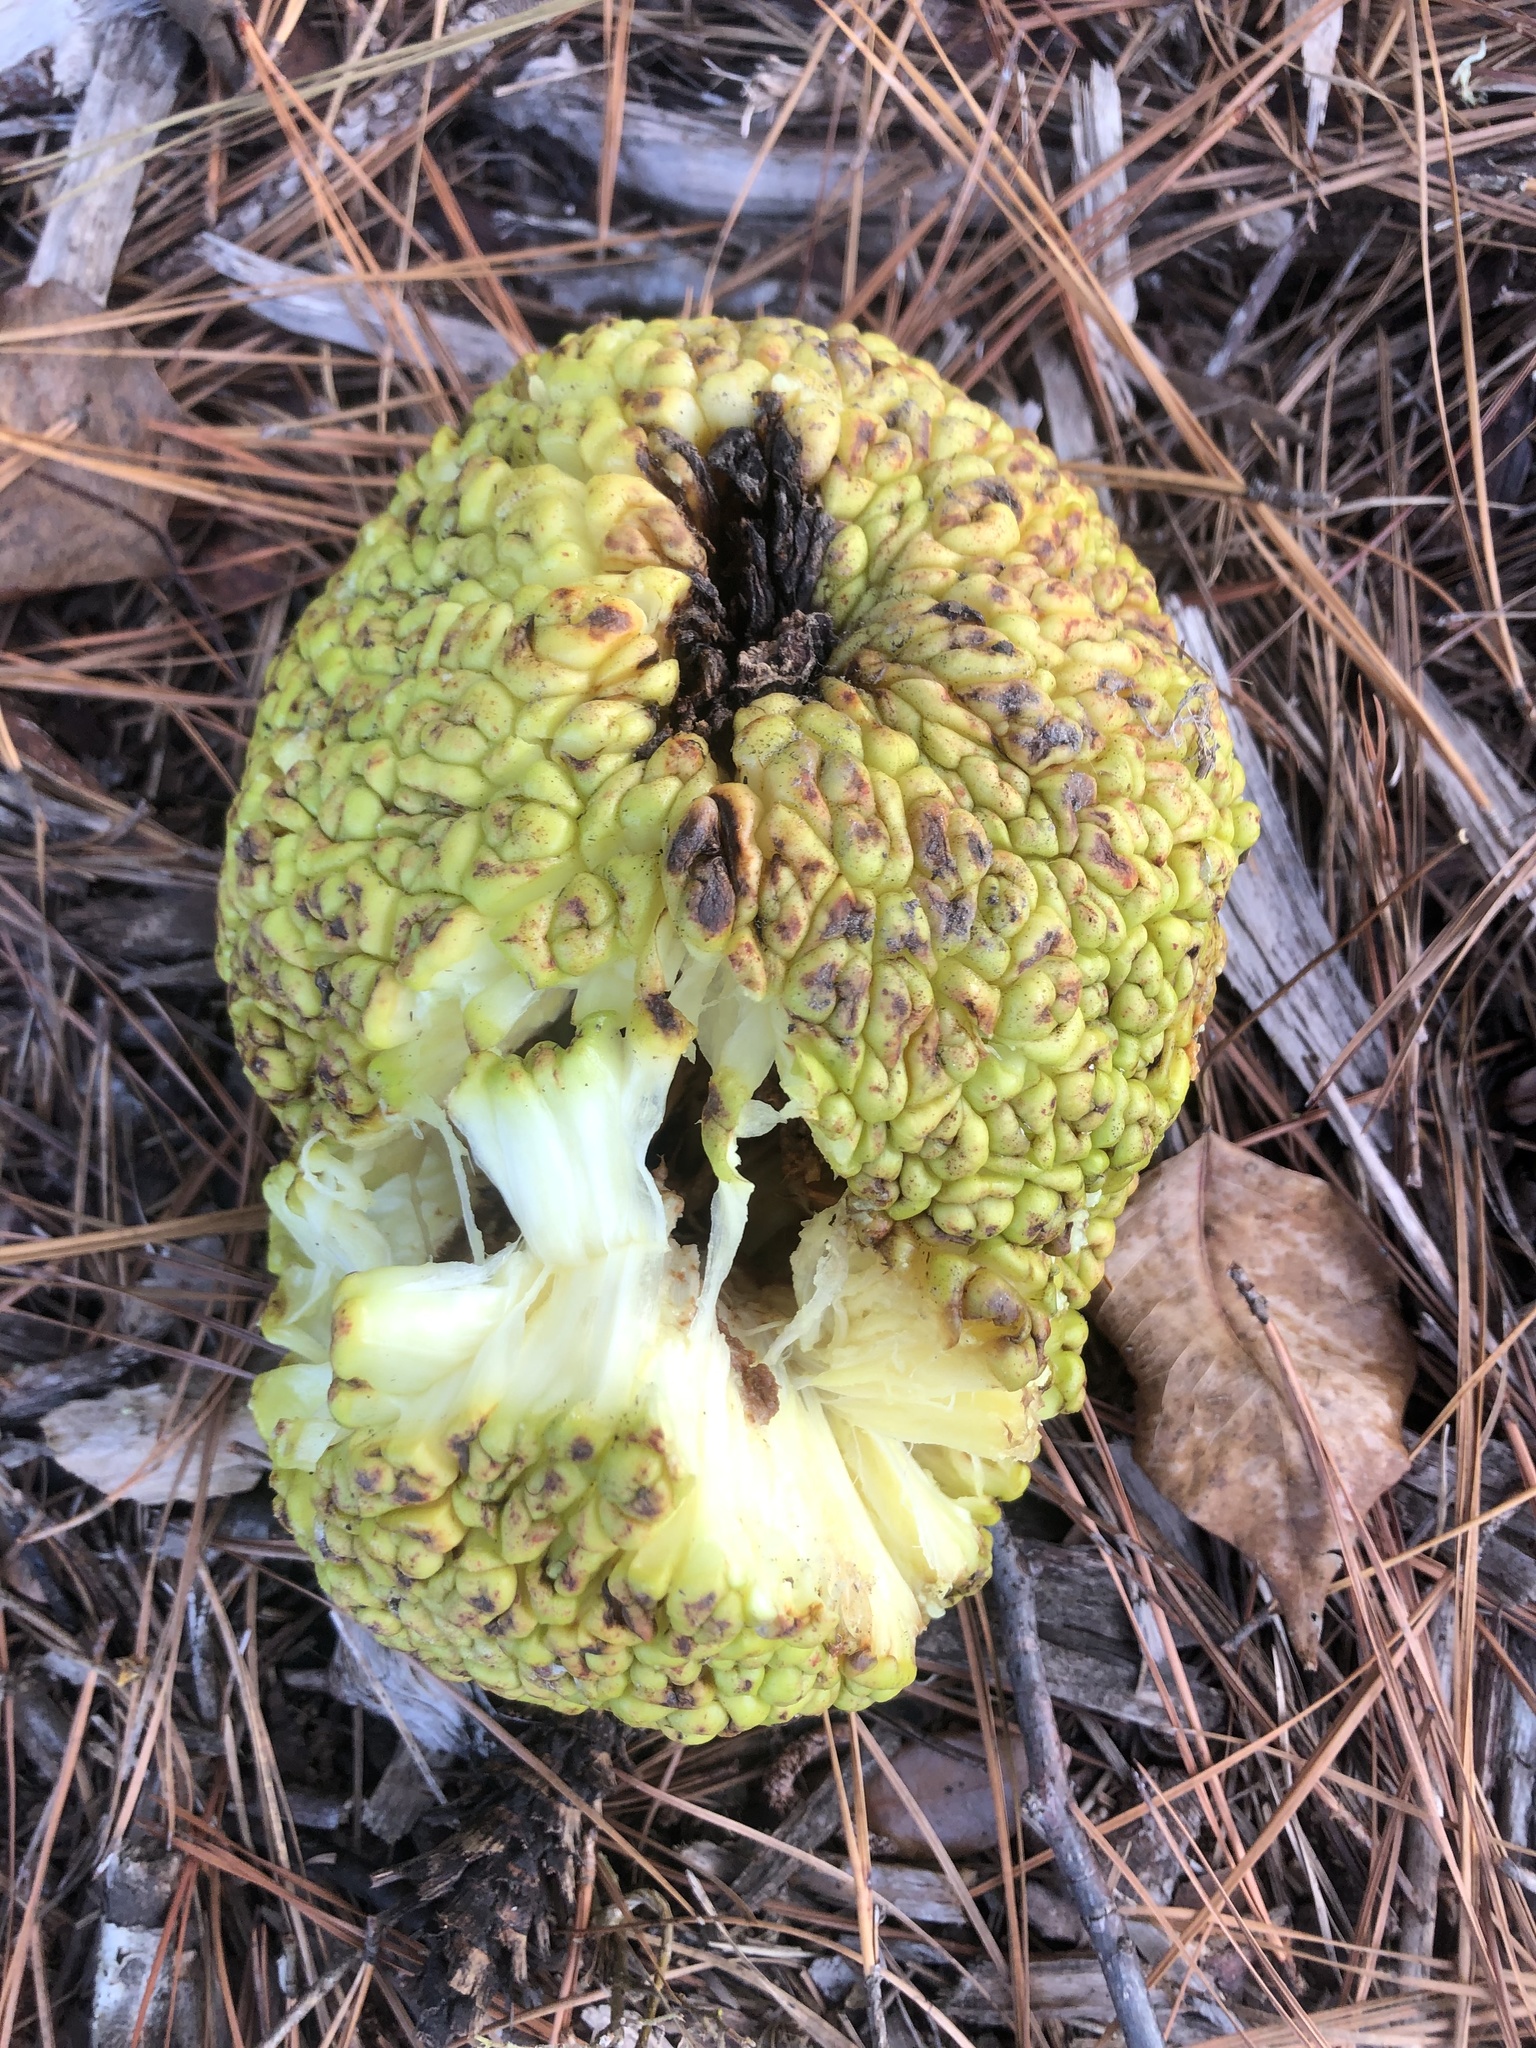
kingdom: Plantae
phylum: Tracheophyta
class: Magnoliopsida
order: Rosales
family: Moraceae
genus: Maclura
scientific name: Maclura pomifera
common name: Osage-orange
